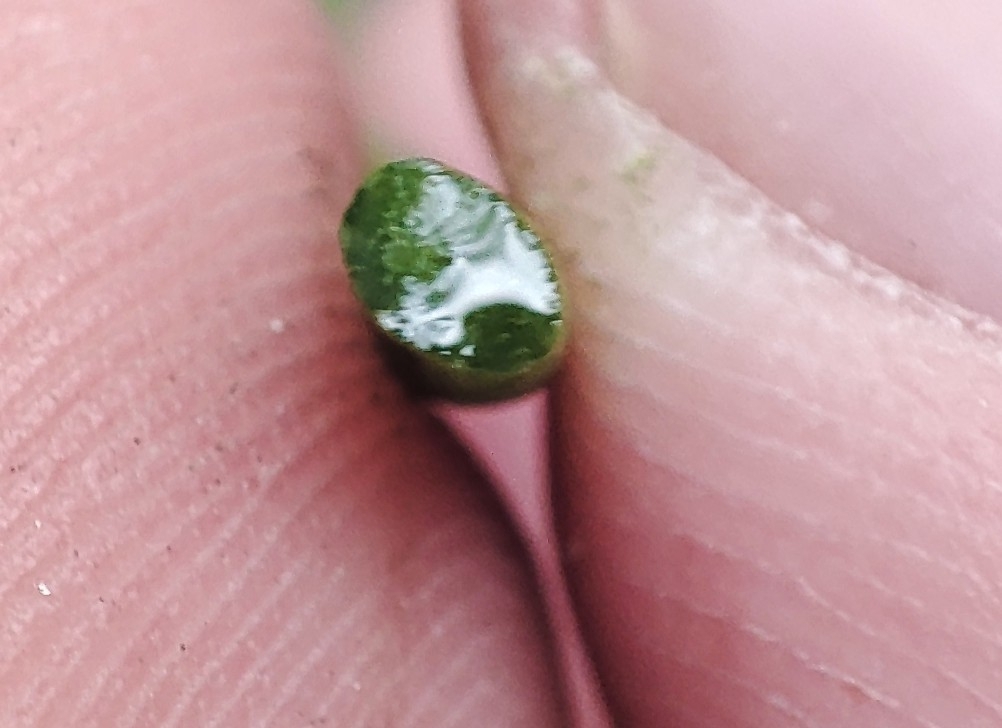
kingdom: Plantae
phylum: Tracheophyta
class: Magnoliopsida
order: Apiales
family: Apiaceae
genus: Silaum
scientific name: Silaum silaus
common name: Pepper-saxifrage
